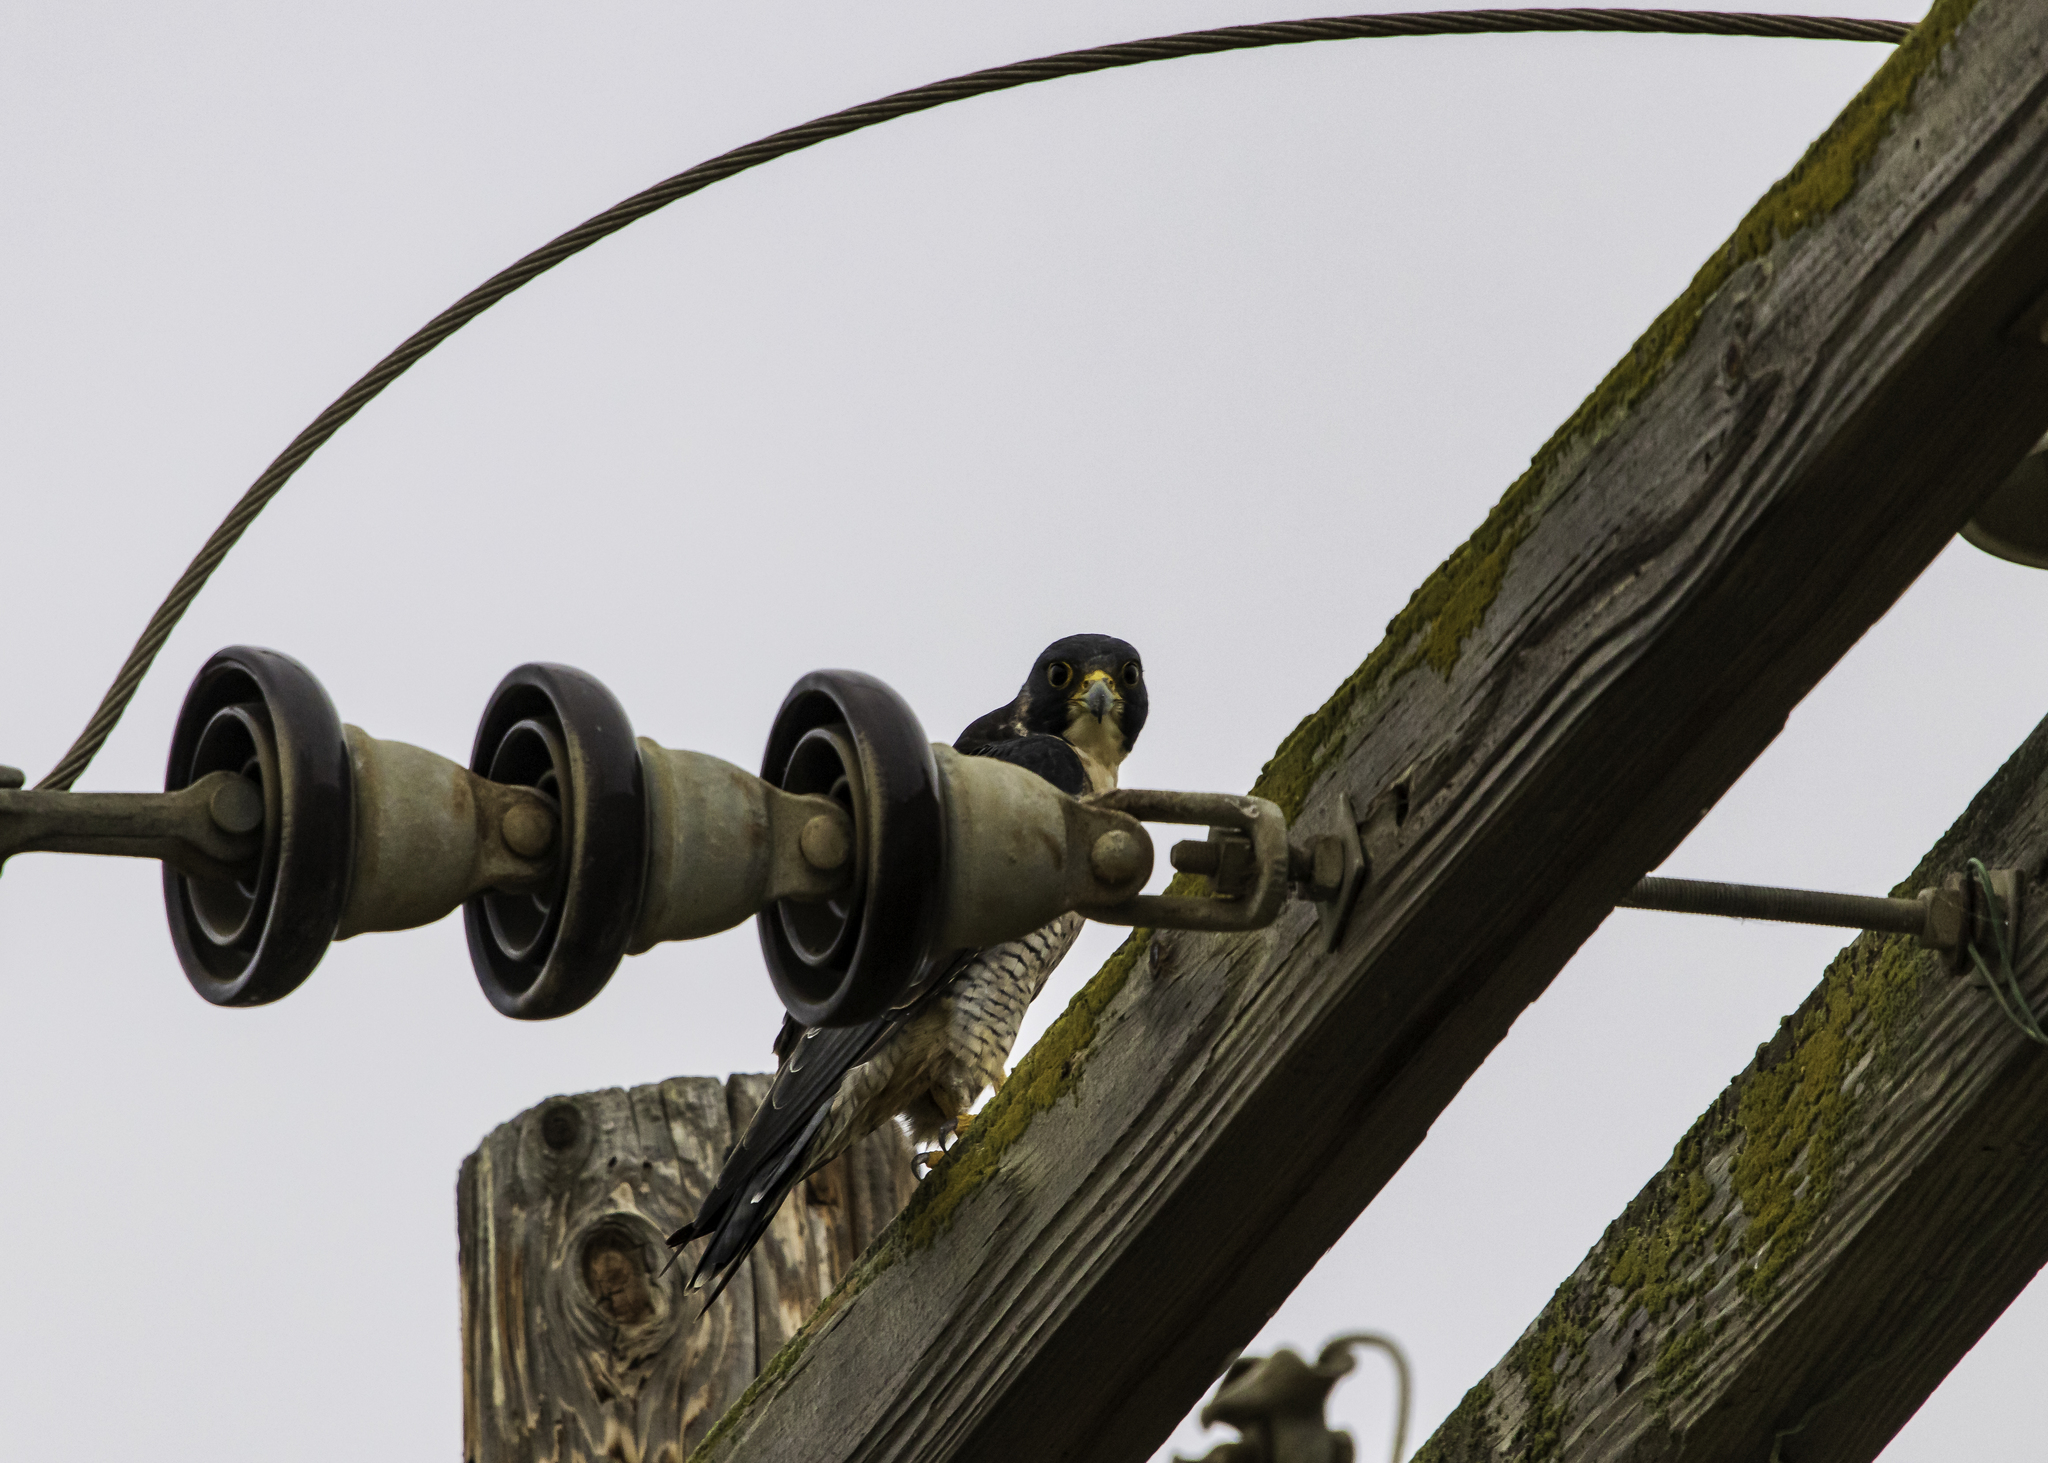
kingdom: Animalia
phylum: Chordata
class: Aves
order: Falconiformes
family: Falconidae
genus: Falco
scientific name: Falco peregrinus
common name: Peregrine falcon
